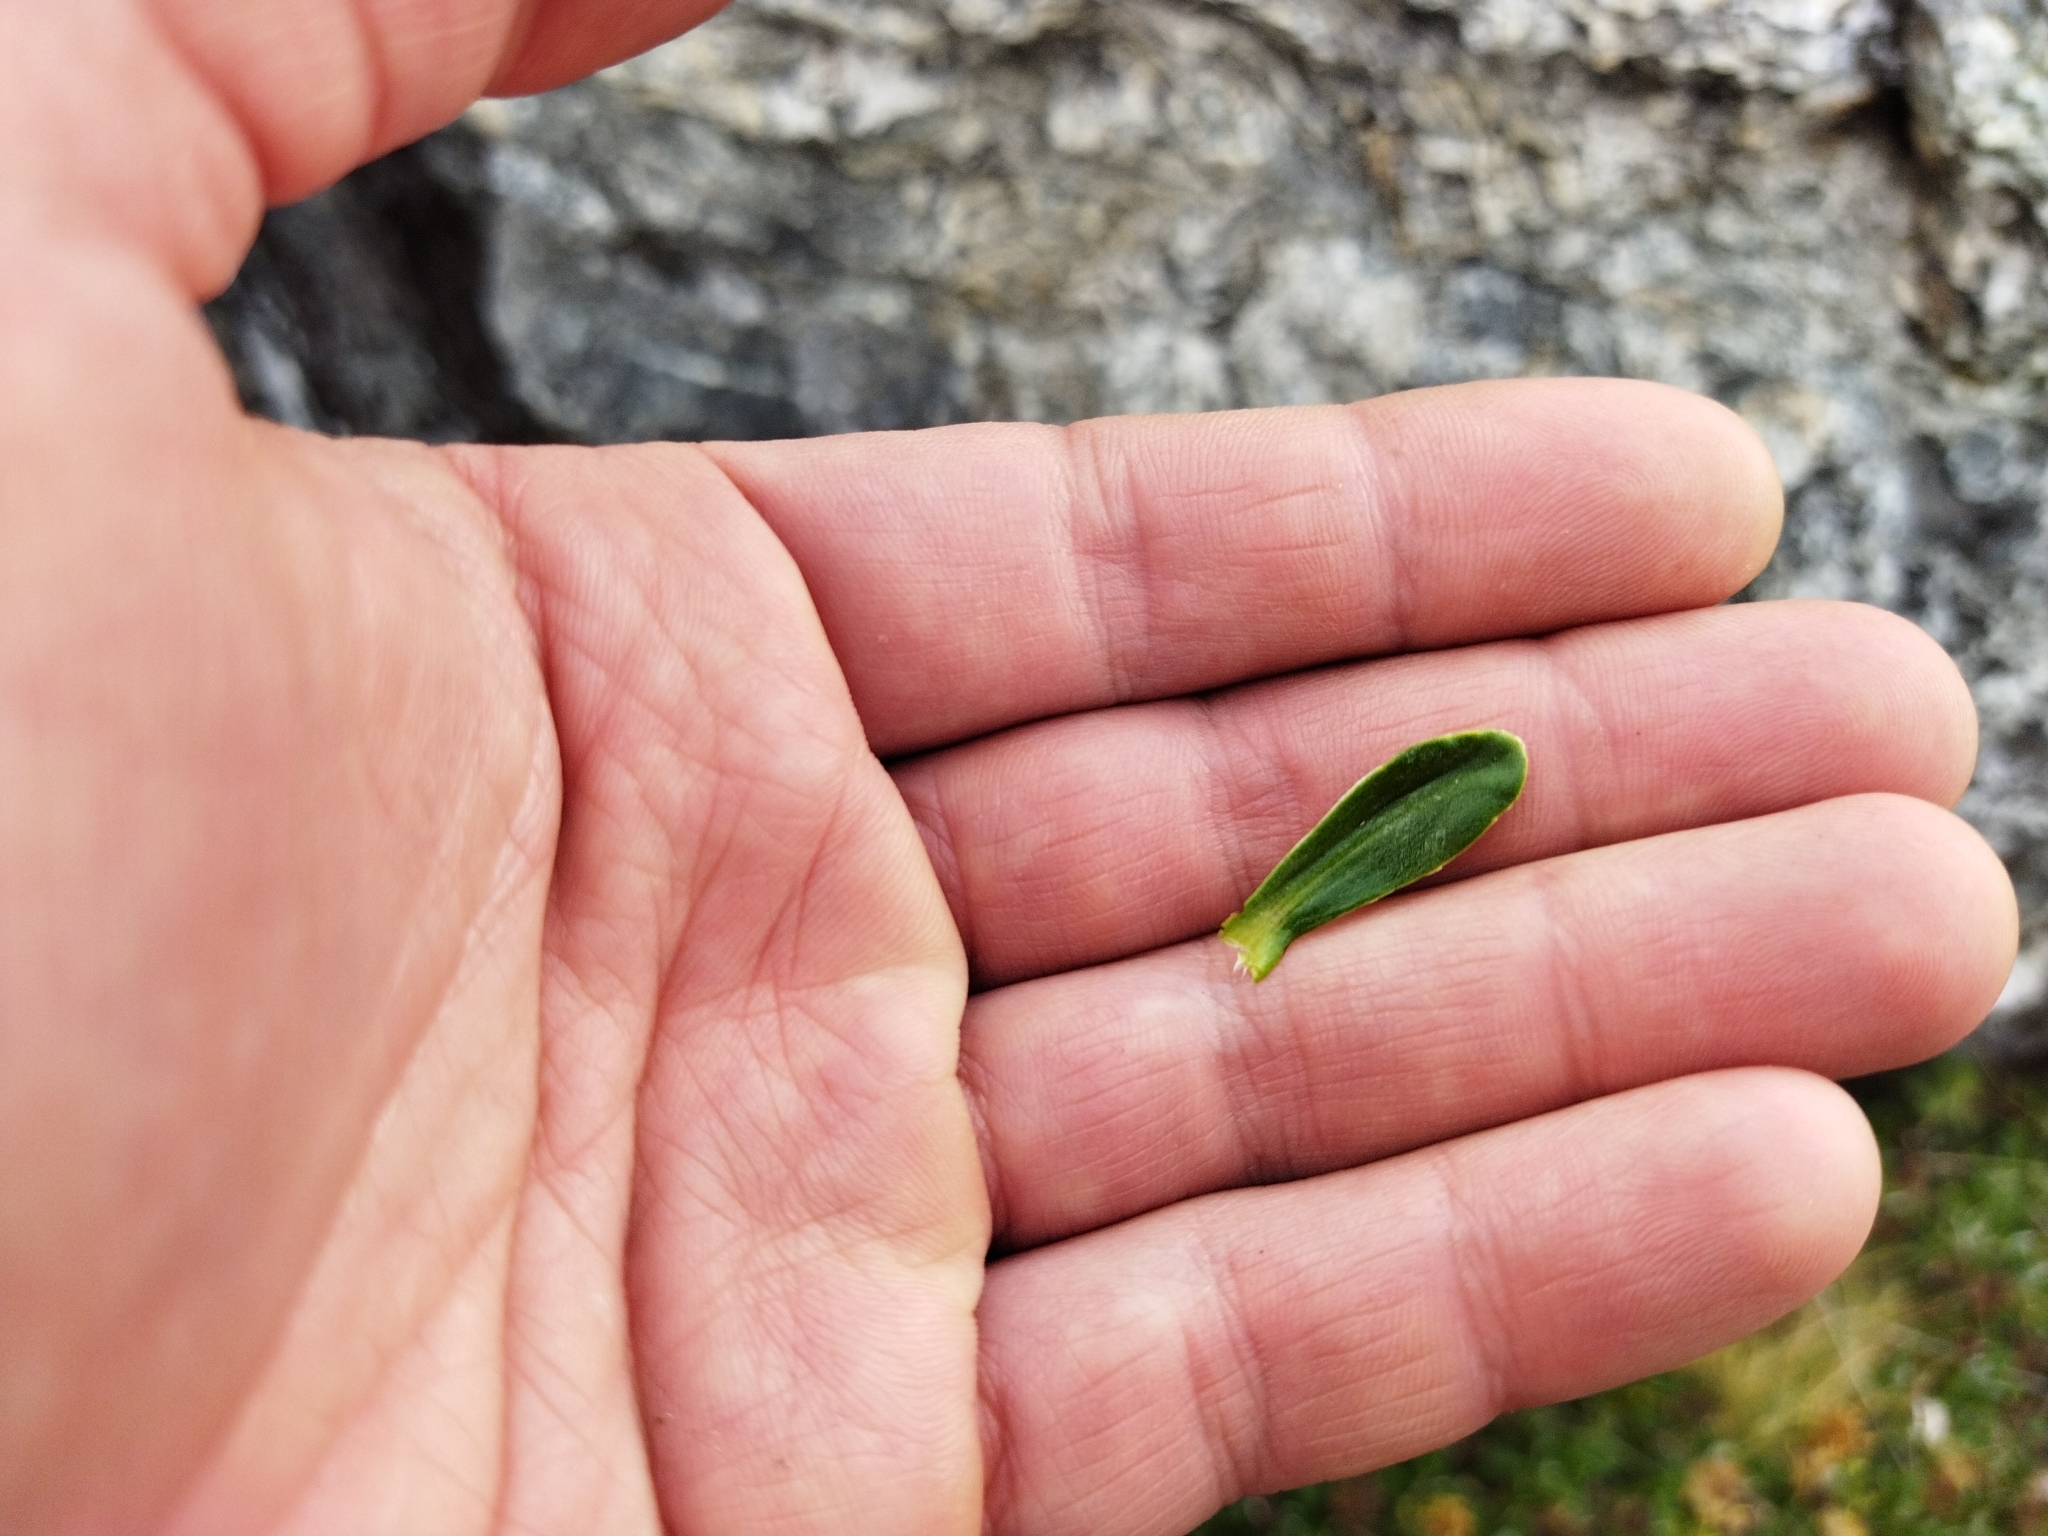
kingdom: Plantae
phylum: Tracheophyta
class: Magnoliopsida
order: Asterales
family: Asteraceae
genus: Celmisia
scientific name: Celmisia angustifolia
